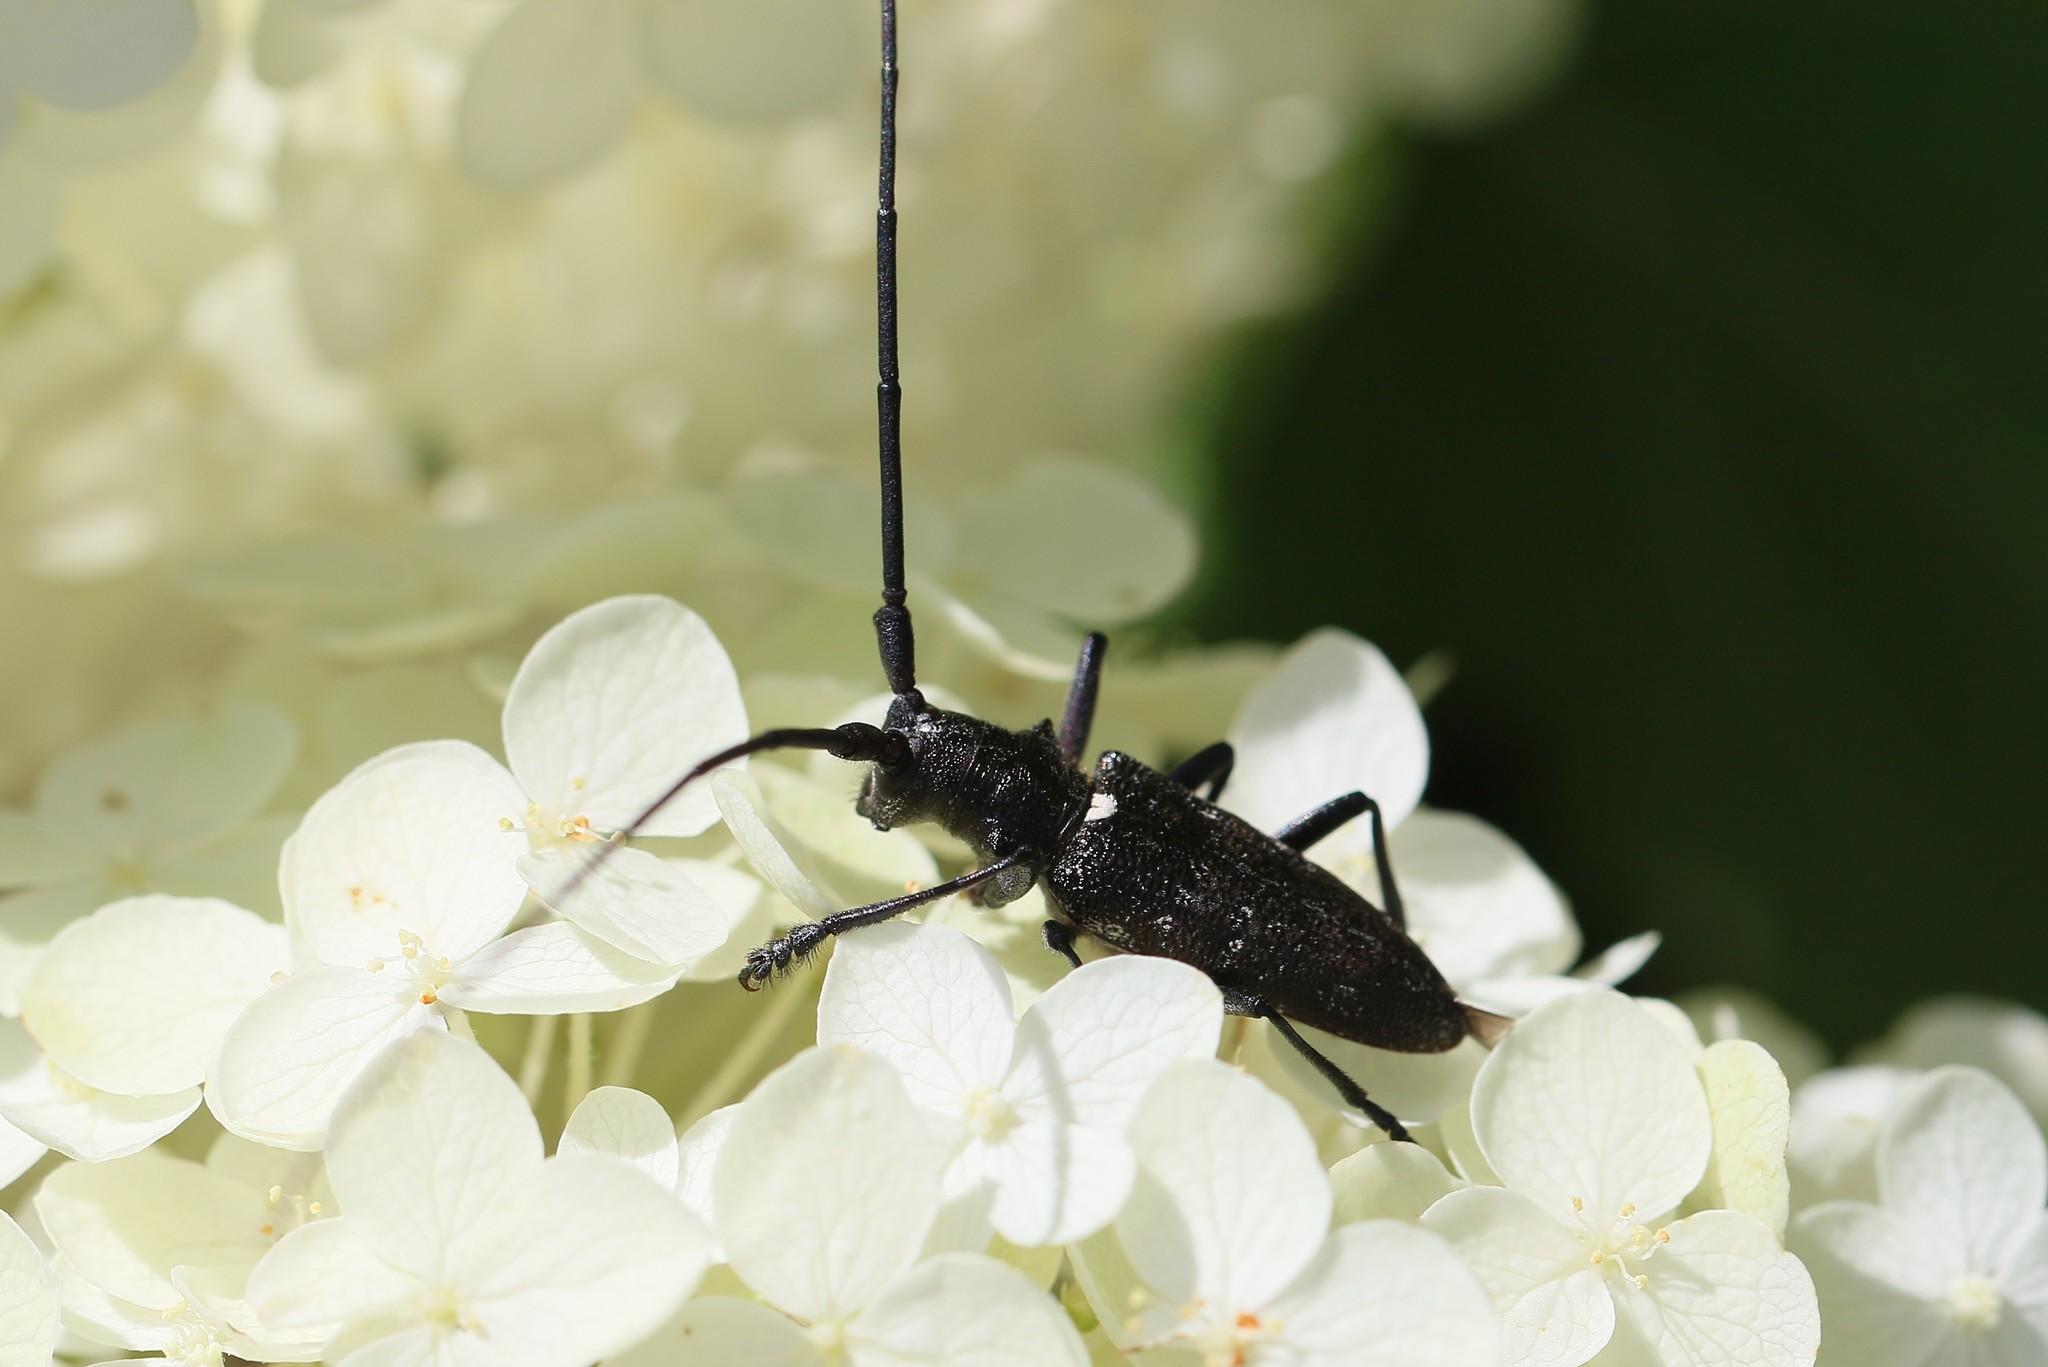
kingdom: Animalia
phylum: Arthropoda
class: Insecta
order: Coleoptera
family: Cerambycidae
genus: Monochamus
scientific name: Monochamus scutellatus
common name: White-spotted sawyer beetle
